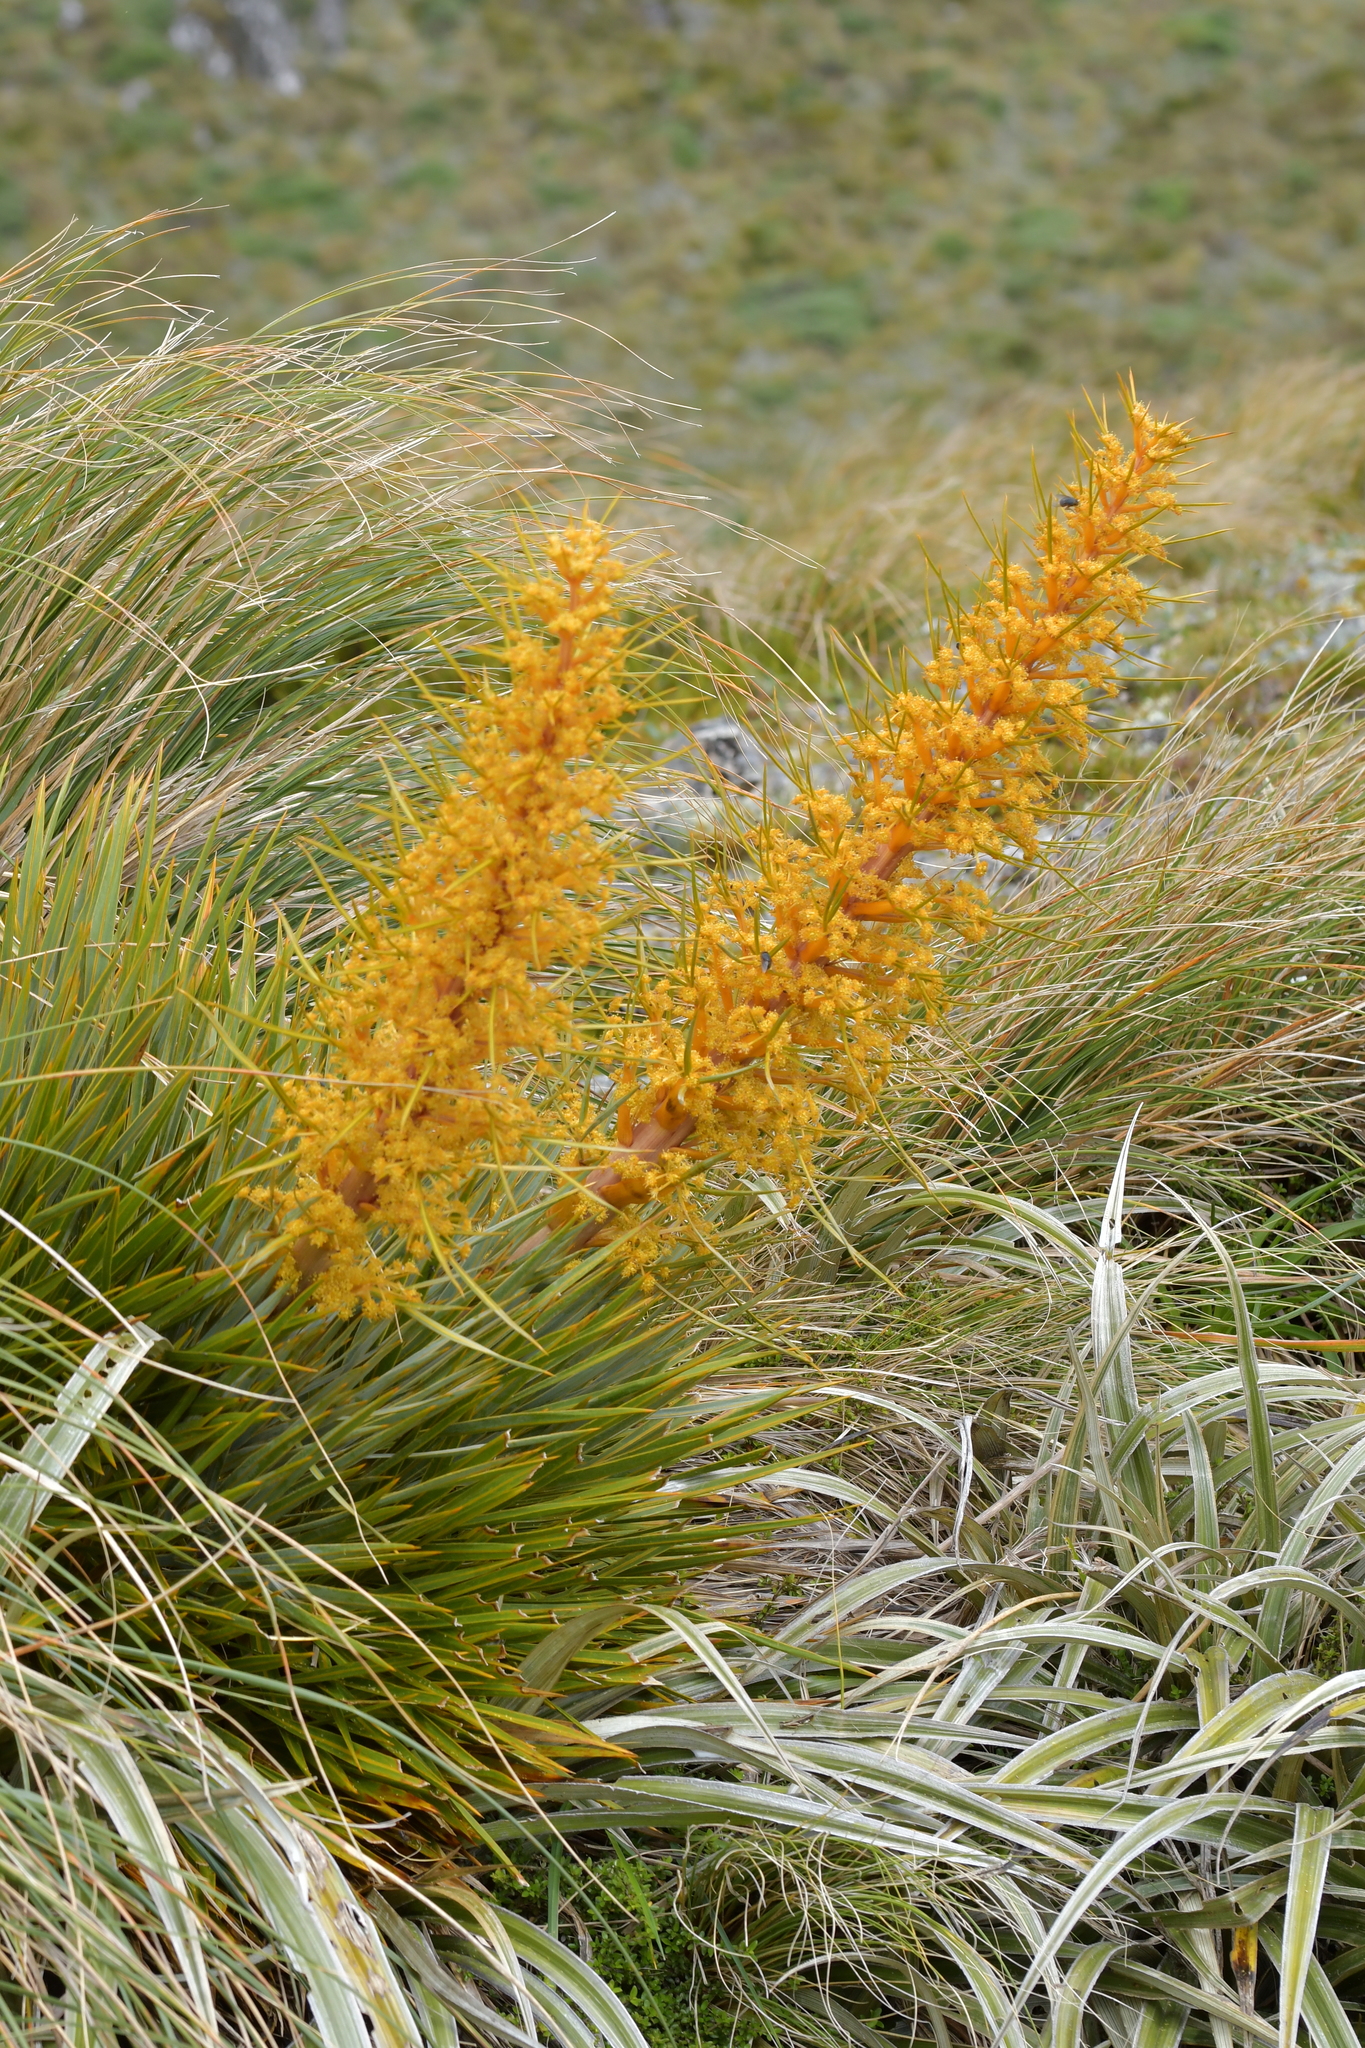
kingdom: Plantae
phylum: Tracheophyta
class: Magnoliopsida
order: Apiales
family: Apiaceae
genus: Aciphylla
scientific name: Aciphylla colensoi
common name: Colenso's spaniard
